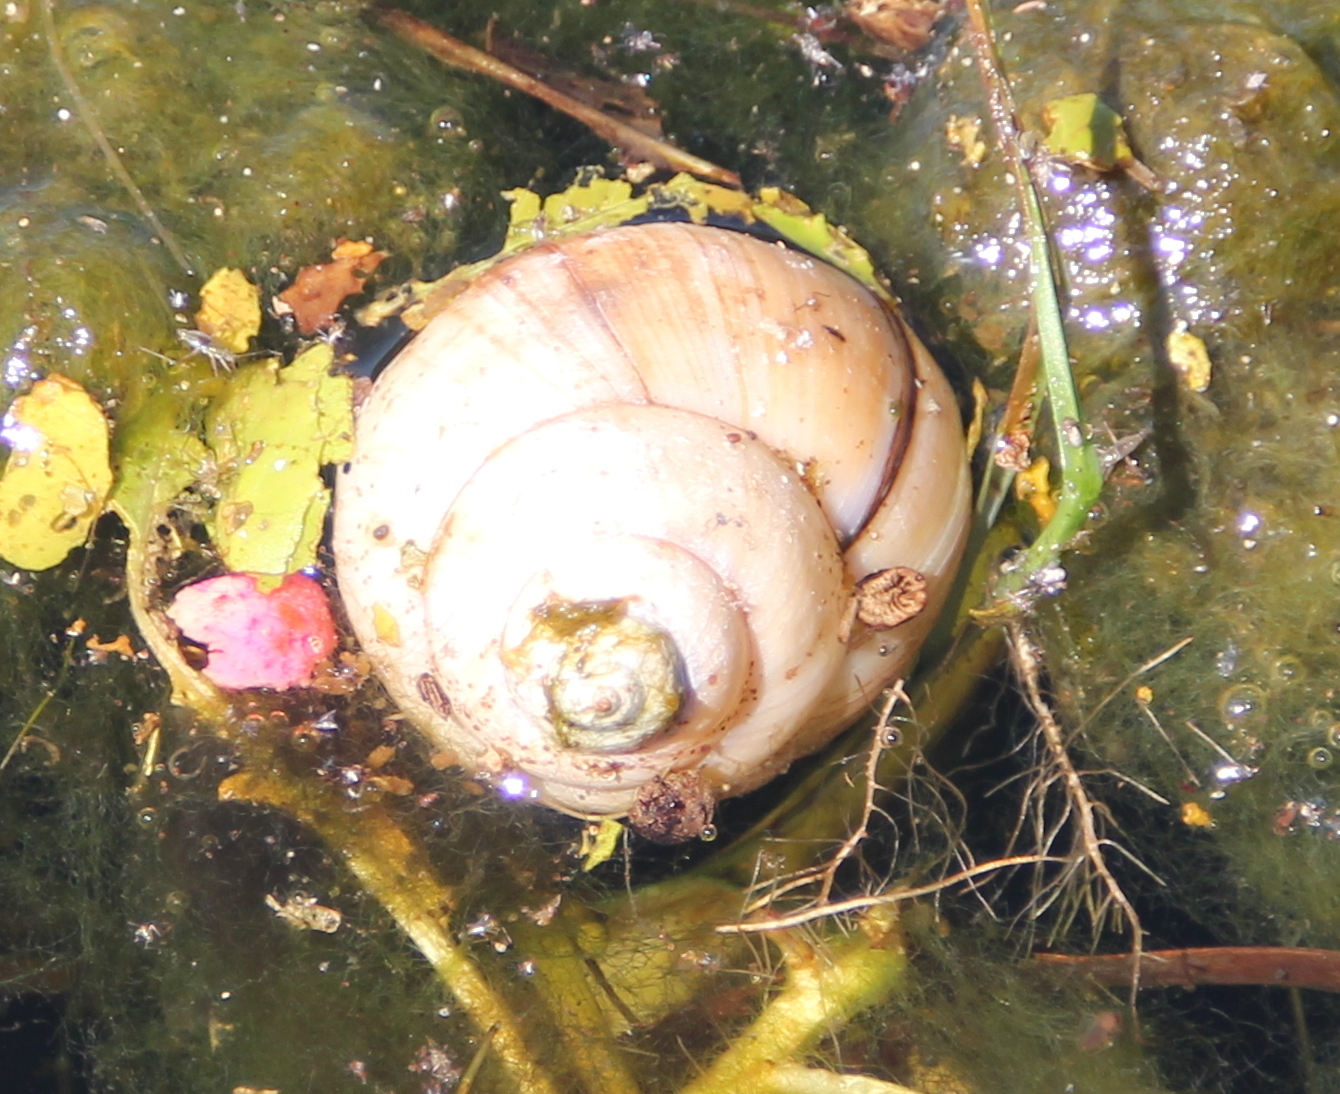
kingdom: Animalia
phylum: Mollusca
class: Gastropoda
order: Architaenioglossa
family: Viviparidae
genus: Cipangopaludina
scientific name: Cipangopaludina chinensis
